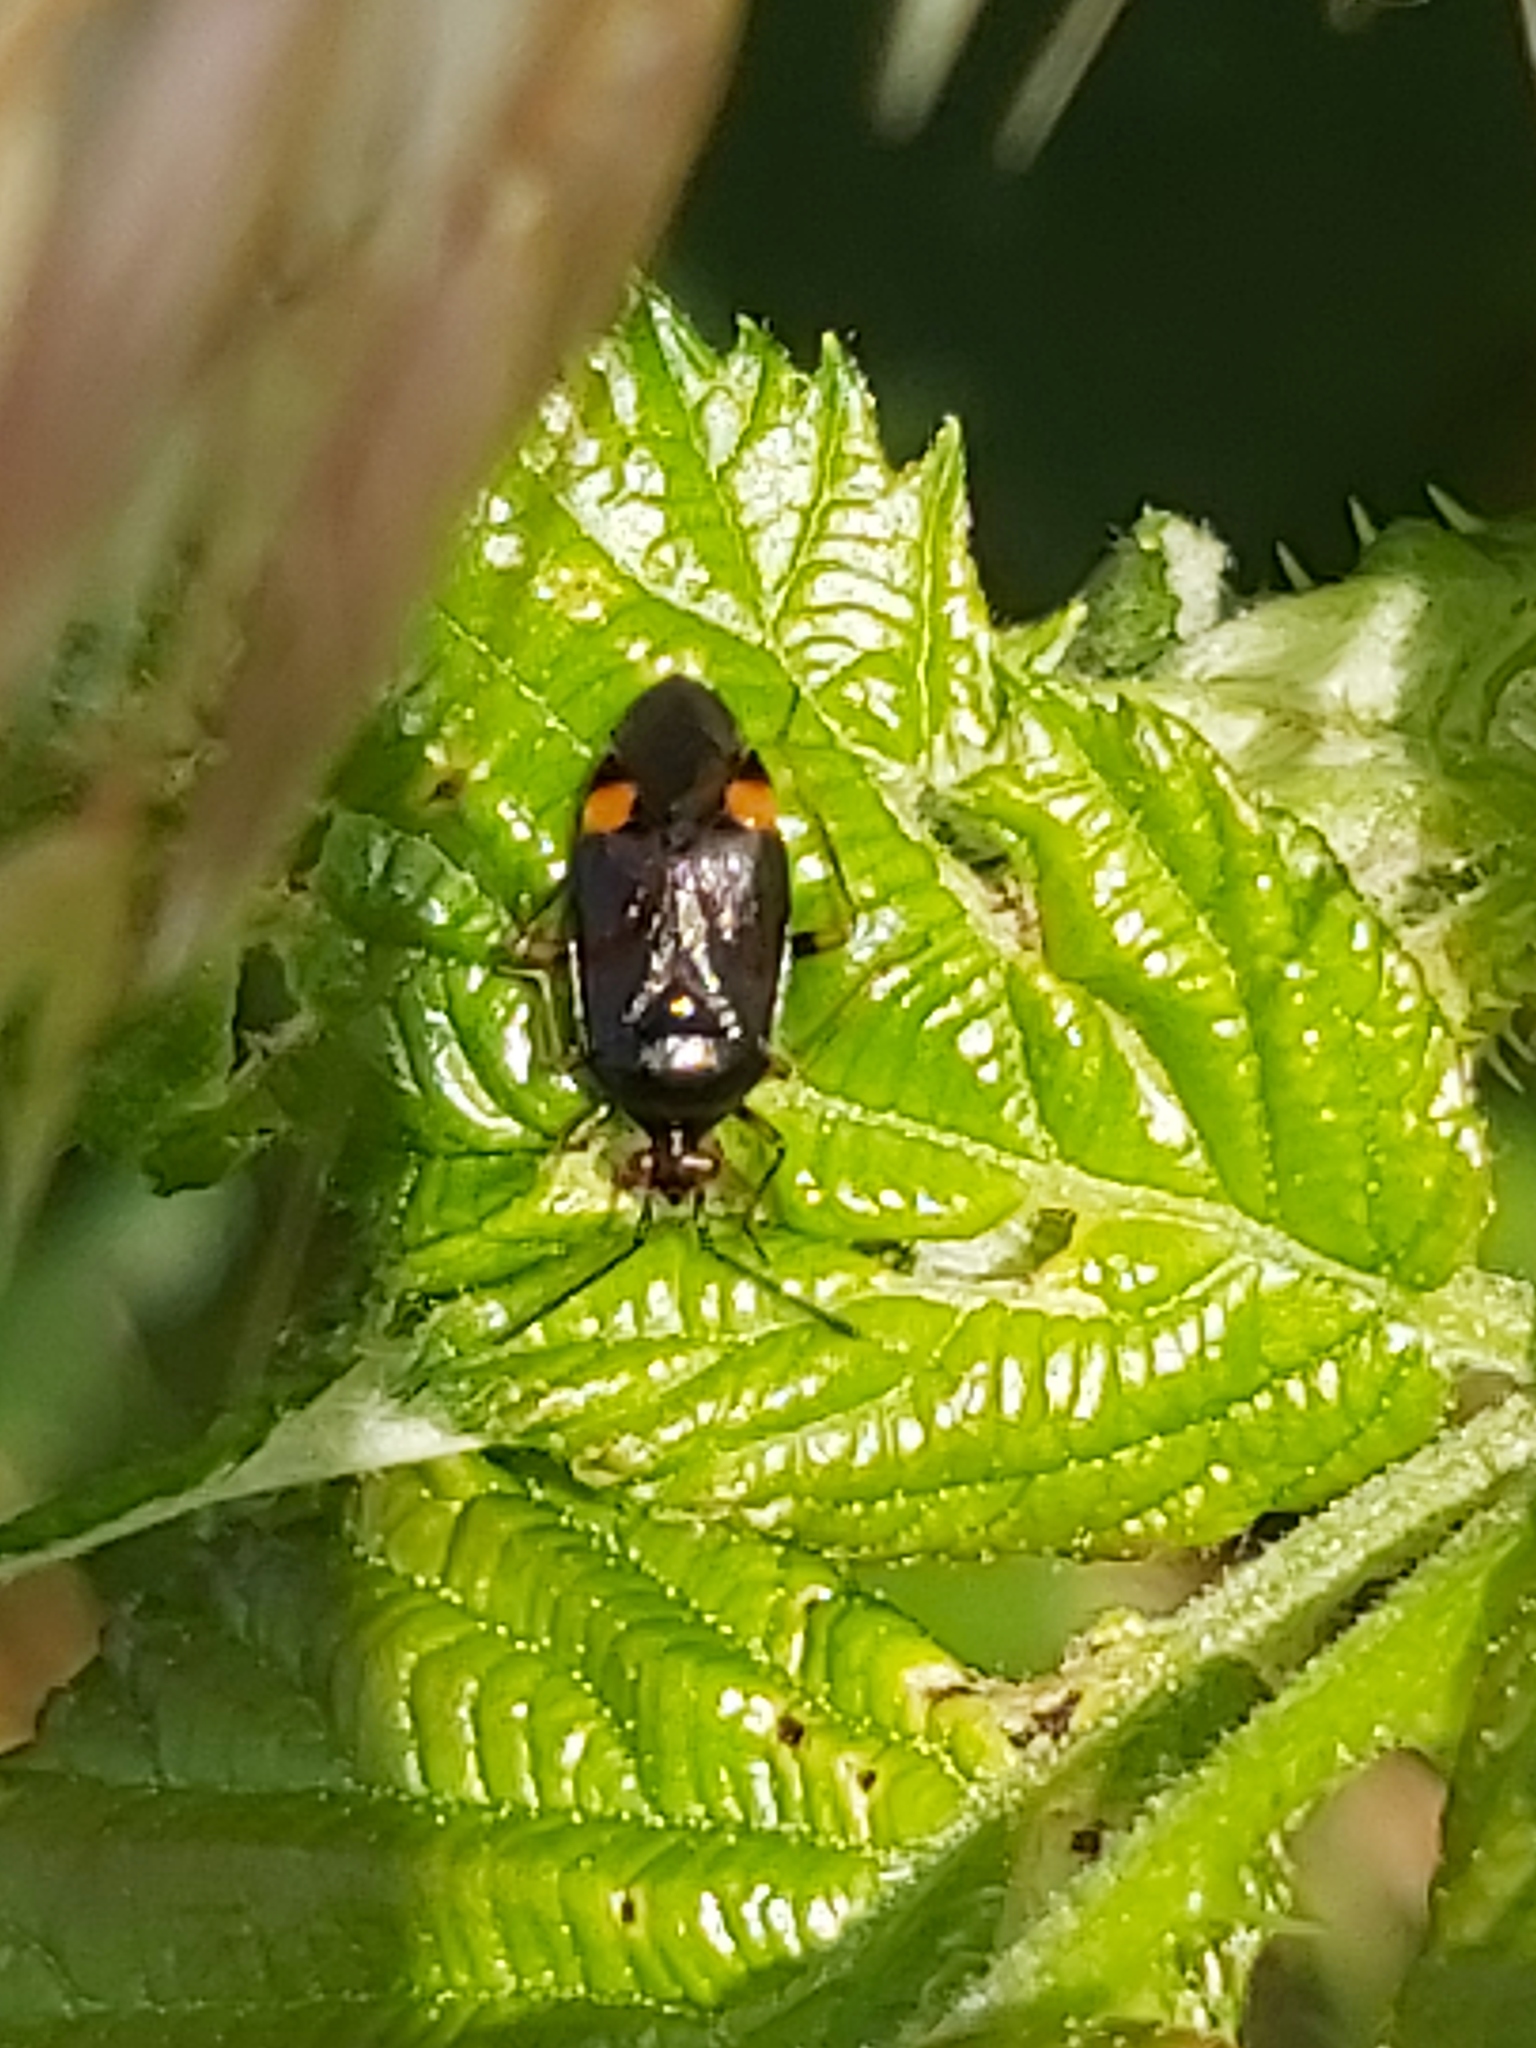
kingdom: Animalia
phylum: Arthropoda
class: Insecta
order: Hemiptera
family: Miridae
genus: Deraeocoris
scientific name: Deraeocoris ruber
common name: Plant bug
